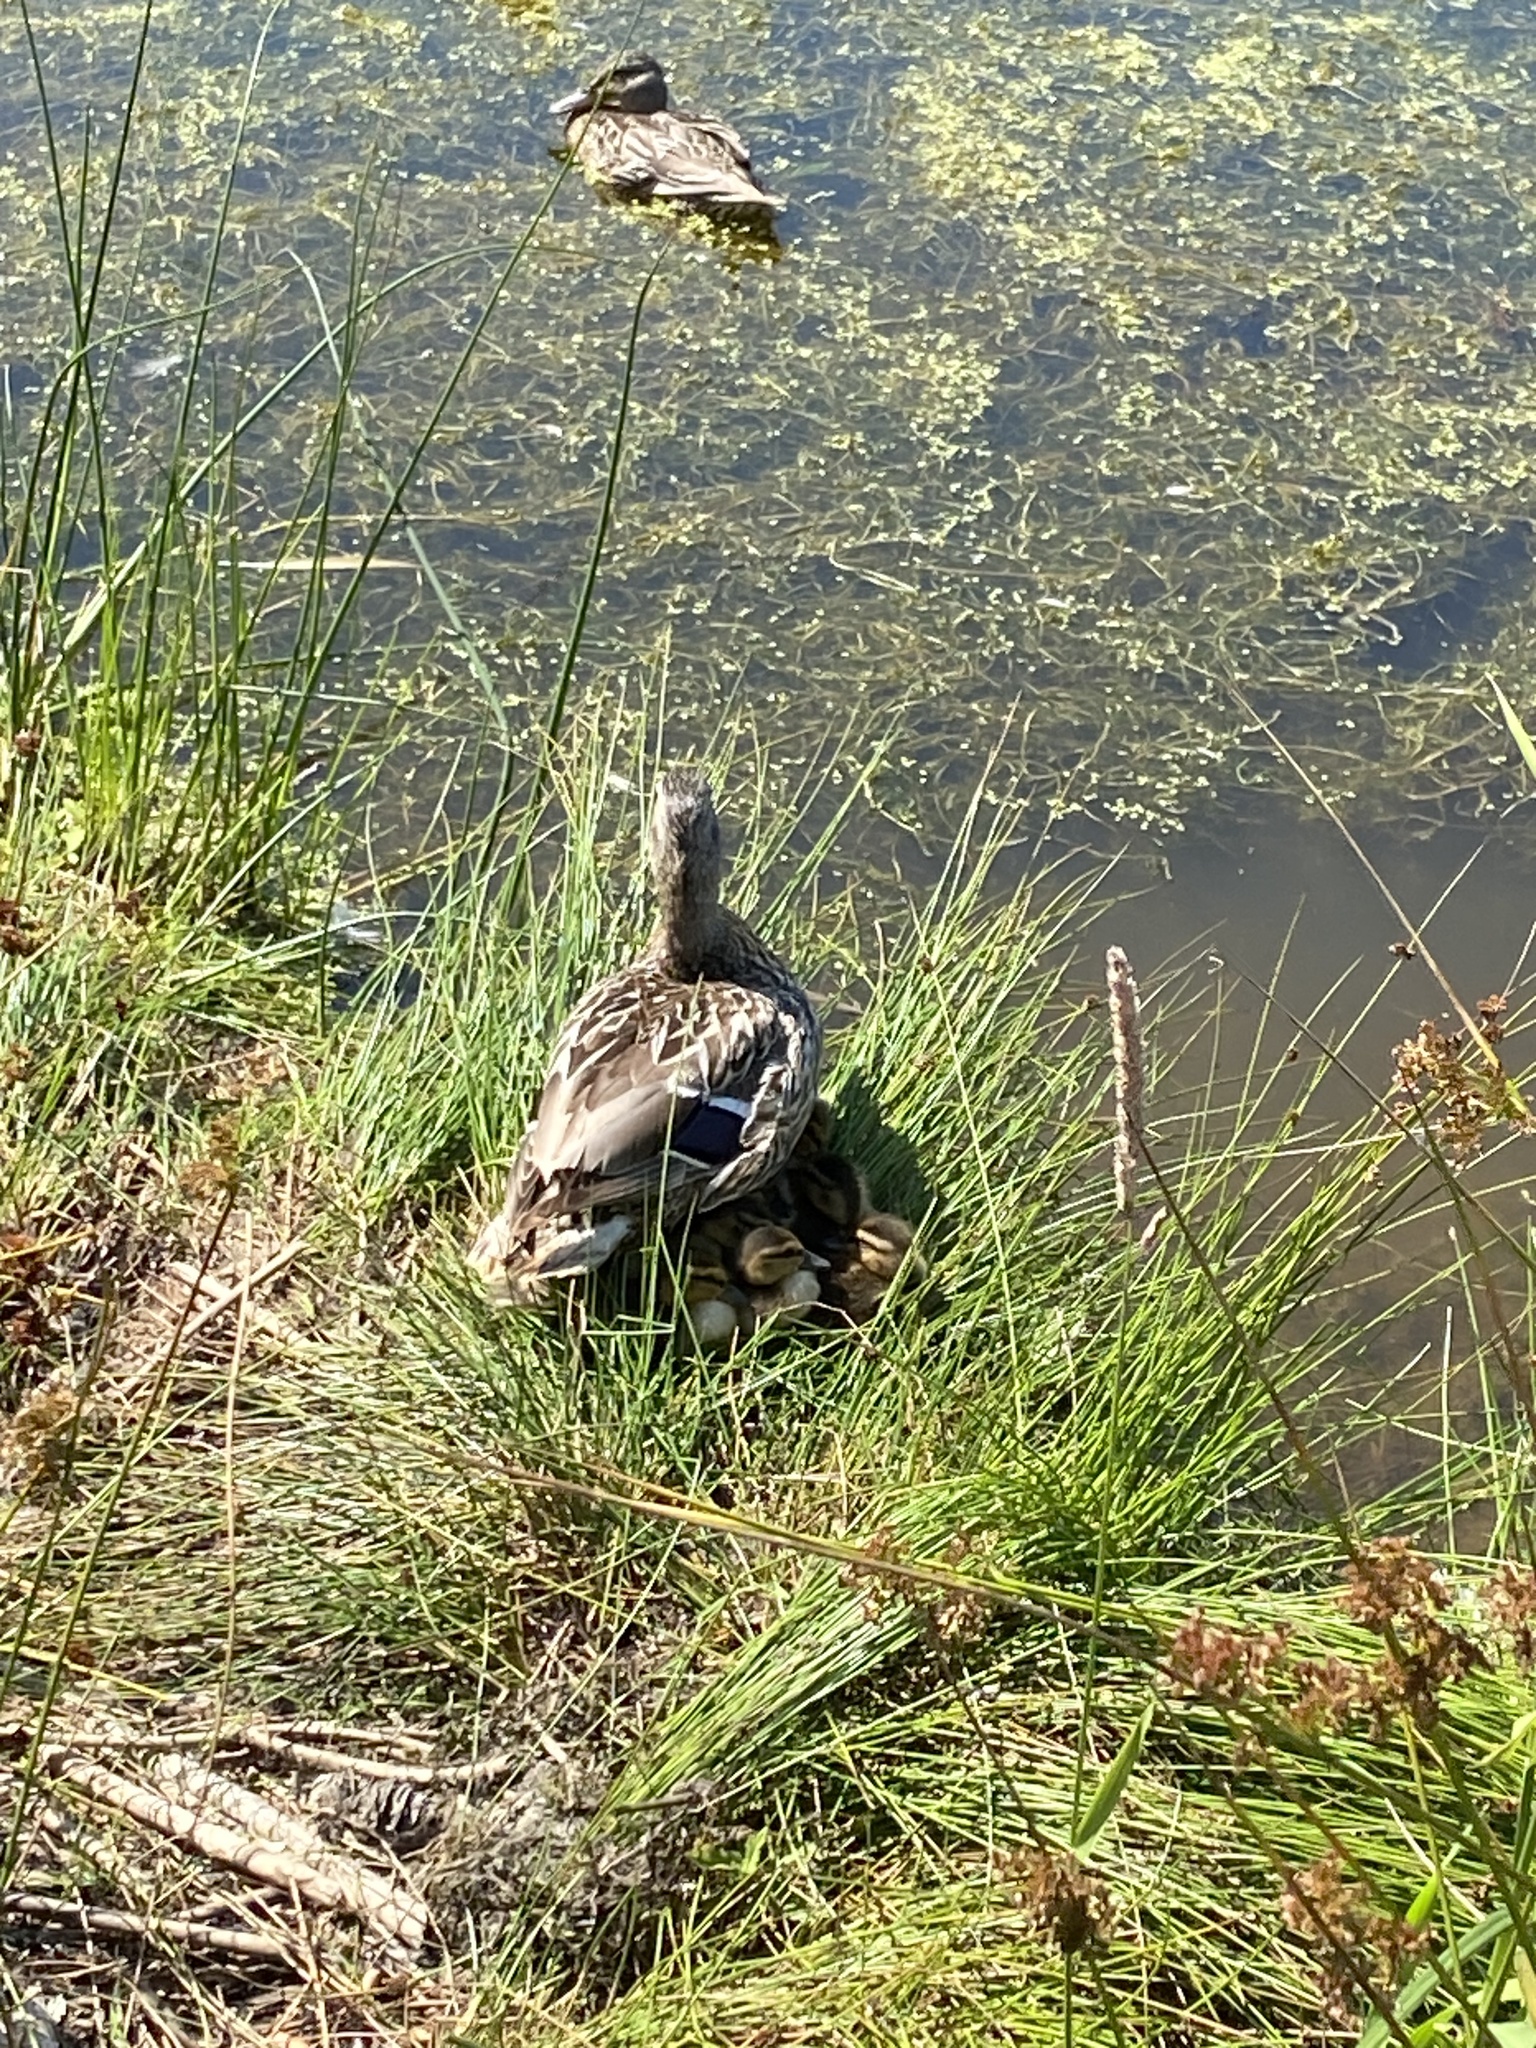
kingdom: Animalia
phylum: Chordata
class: Aves
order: Anseriformes
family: Anatidae
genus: Anas
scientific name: Anas platyrhynchos
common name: Mallard
